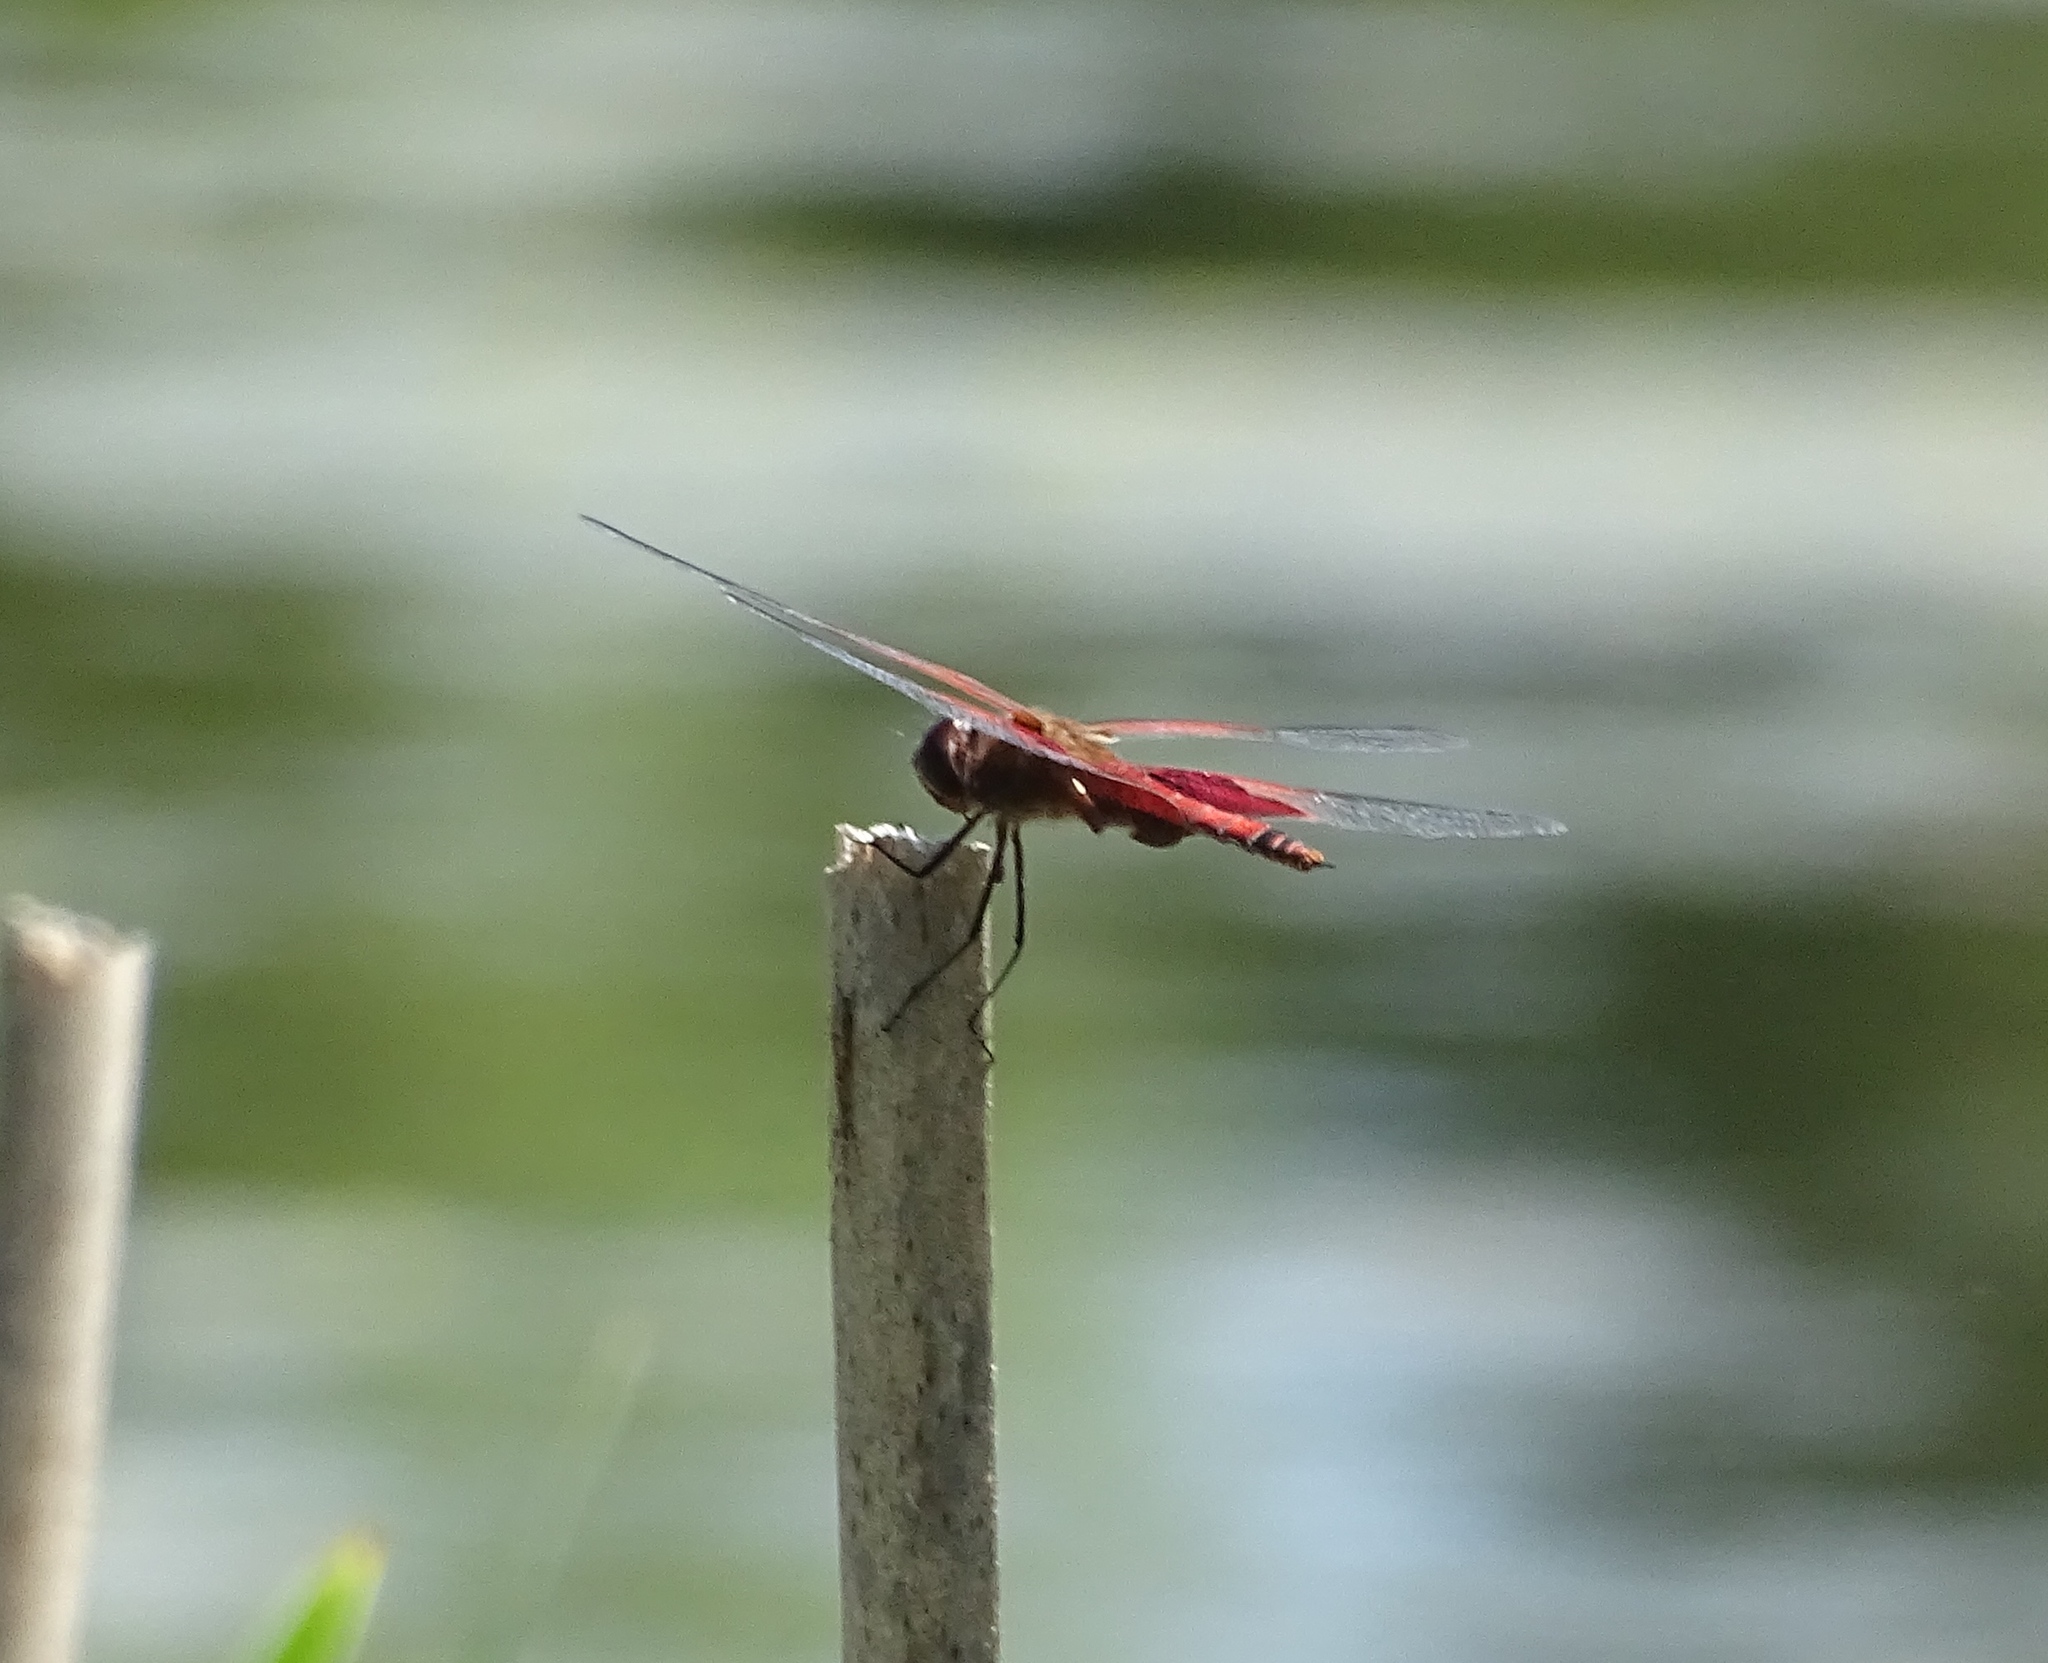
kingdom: Animalia
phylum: Arthropoda
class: Insecta
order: Odonata
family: Libellulidae
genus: Tramea
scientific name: Tramea carolina
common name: Carolina saddlebags
